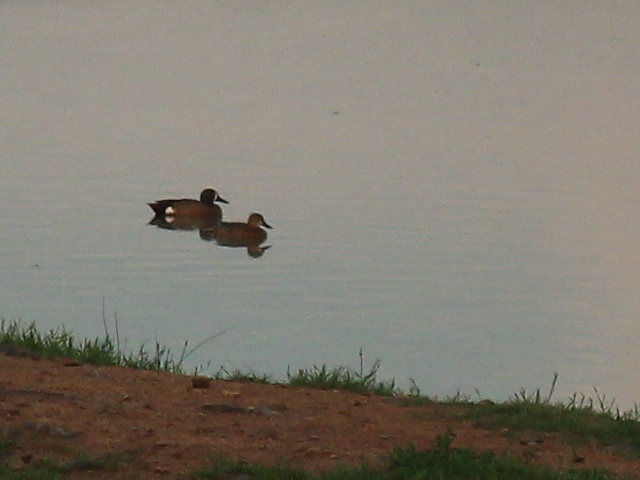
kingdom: Animalia
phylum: Chordata
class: Aves
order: Anseriformes
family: Anatidae
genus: Spatula
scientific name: Spatula discors
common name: Blue-winged teal
